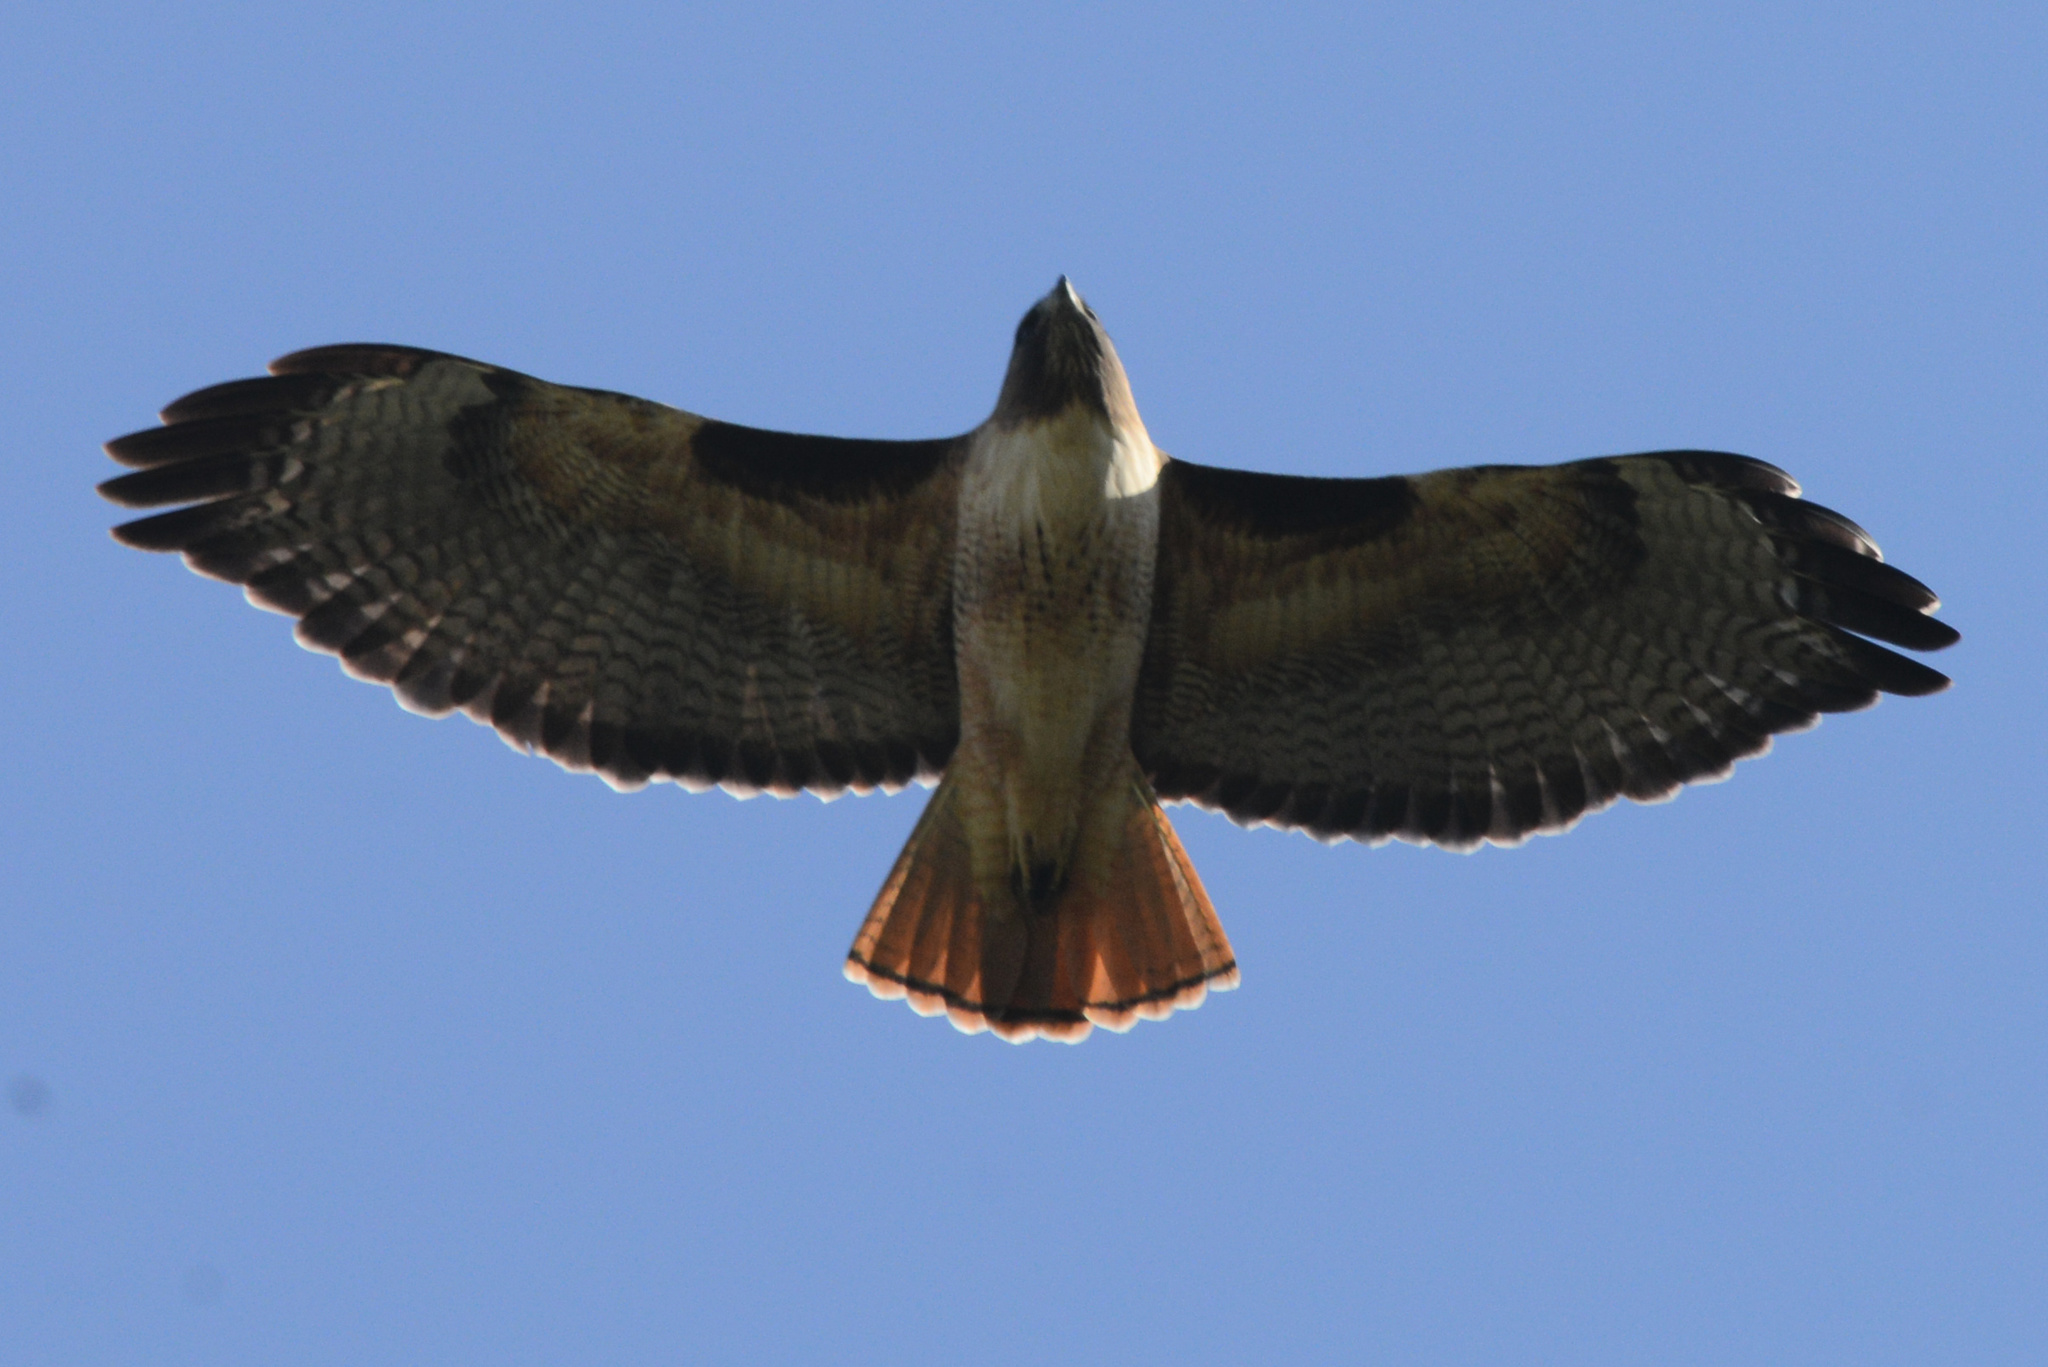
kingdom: Animalia
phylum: Chordata
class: Aves
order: Accipitriformes
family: Accipitridae
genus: Buteo
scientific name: Buteo jamaicensis
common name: Red-tailed hawk
